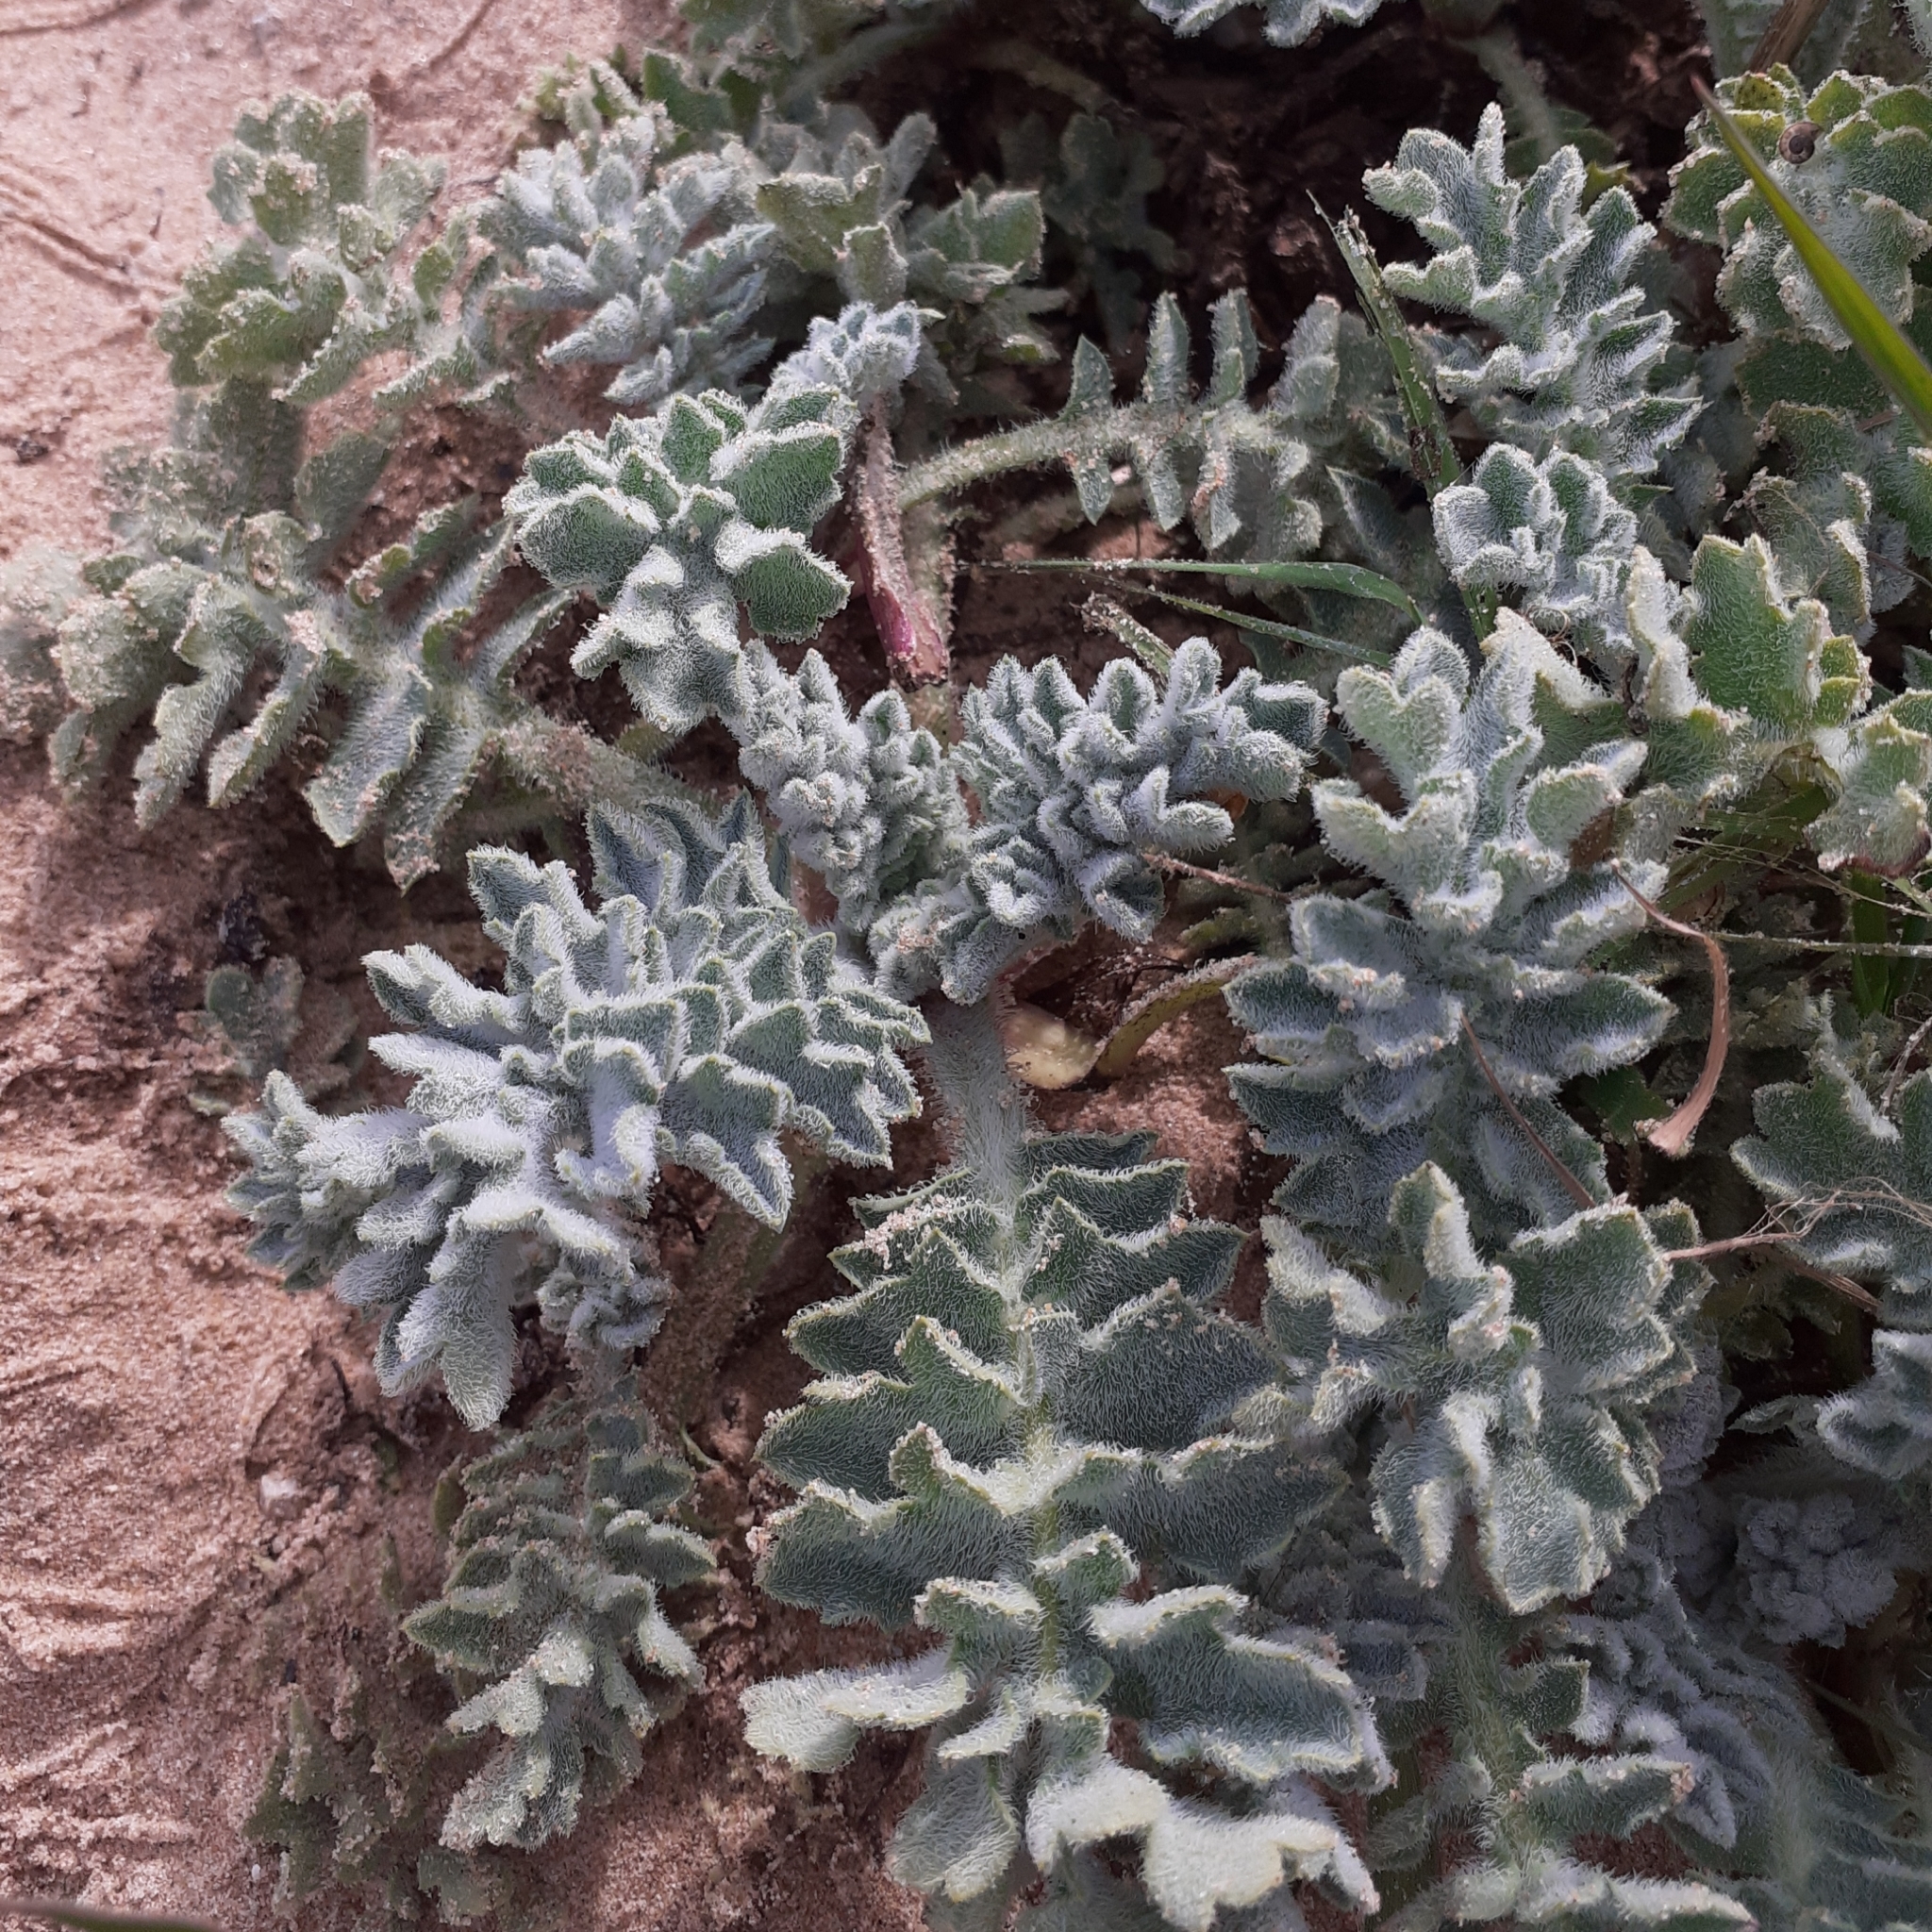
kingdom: Plantae
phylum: Tracheophyta
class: Magnoliopsida
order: Ranunculales
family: Papaveraceae
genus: Glaucium
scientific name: Glaucium flavum
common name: Yellow horned-poppy
